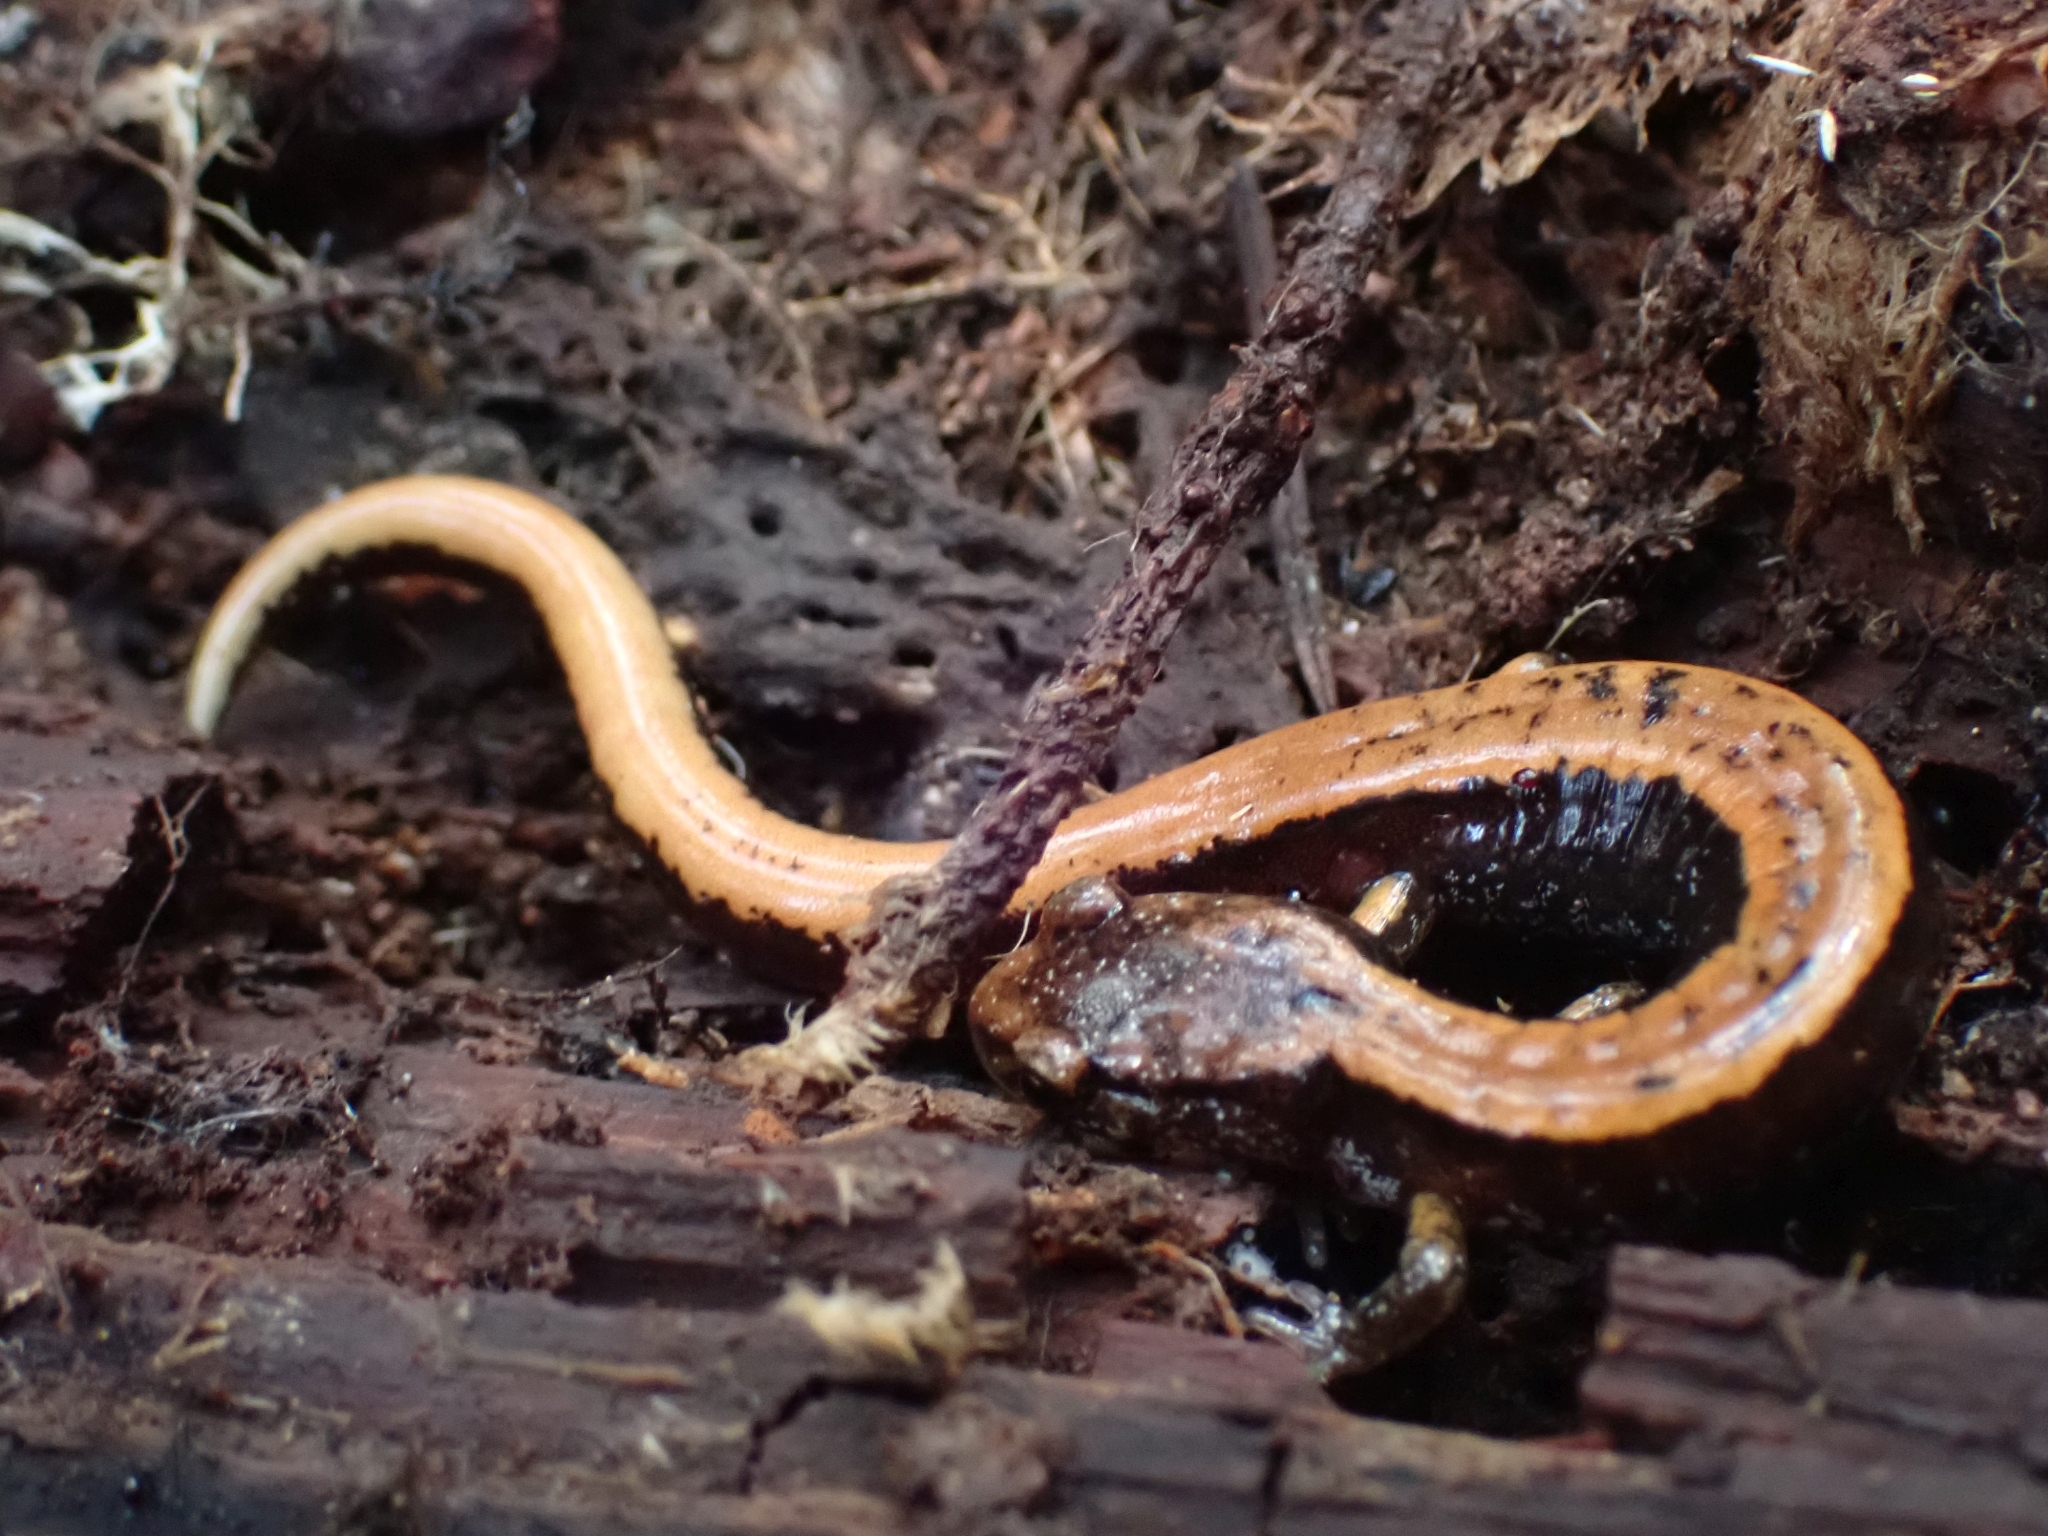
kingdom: Animalia
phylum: Chordata
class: Amphibia
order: Caudata
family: Plethodontidae
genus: Plethodon
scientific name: Plethodon vehiculum
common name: Western red-backed salamander
